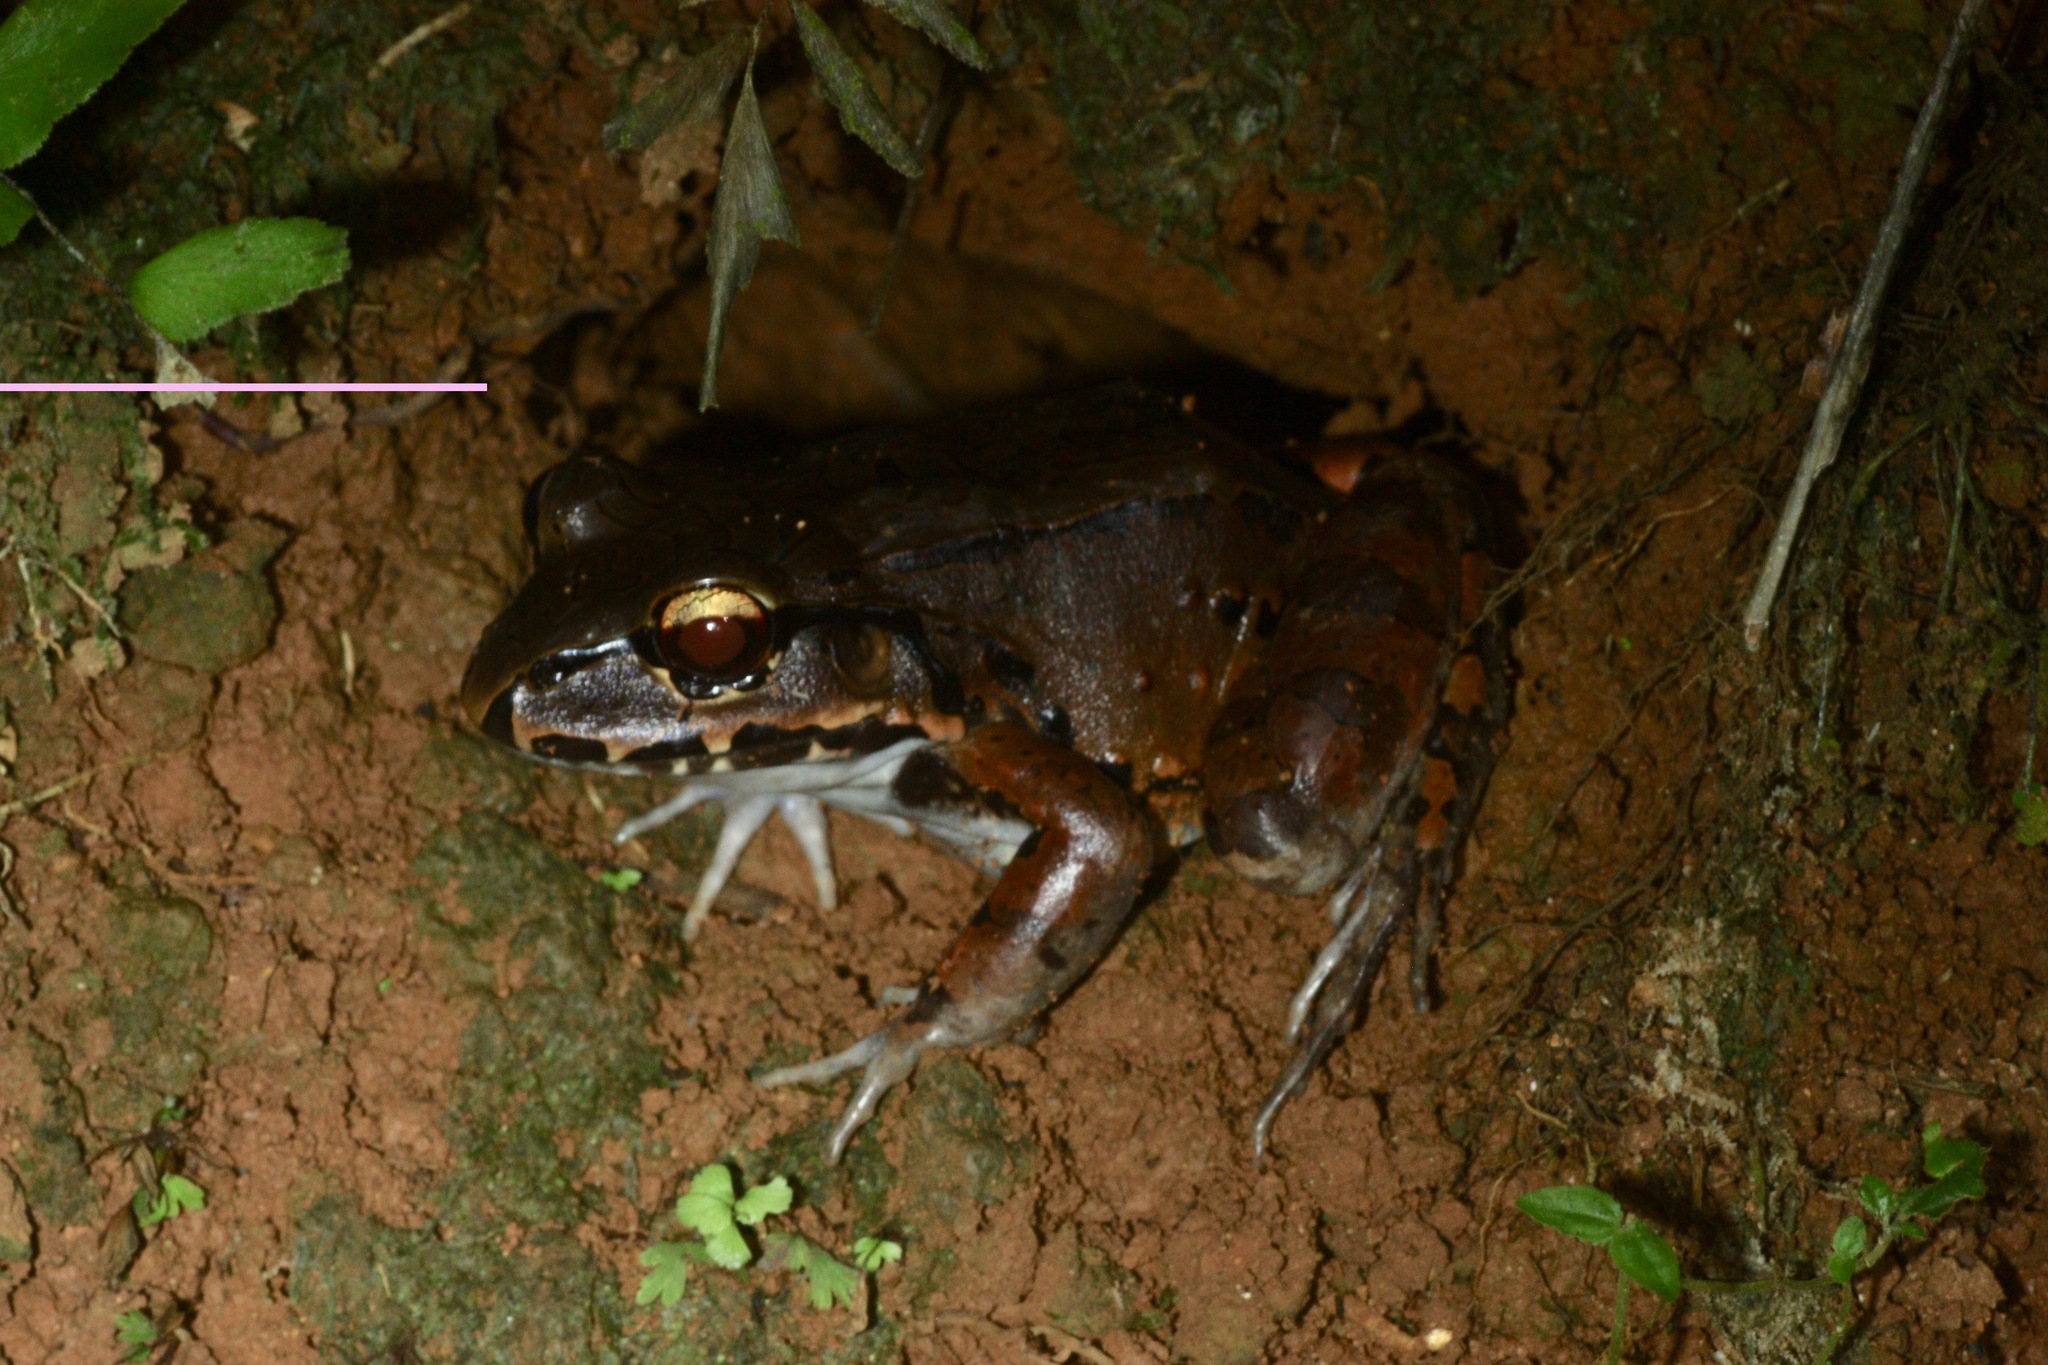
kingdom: Animalia
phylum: Chordata
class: Amphibia
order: Anura
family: Leptodactylidae
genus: Leptodactylus
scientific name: Leptodactylus savagei
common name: Savage's thin-toed frog
